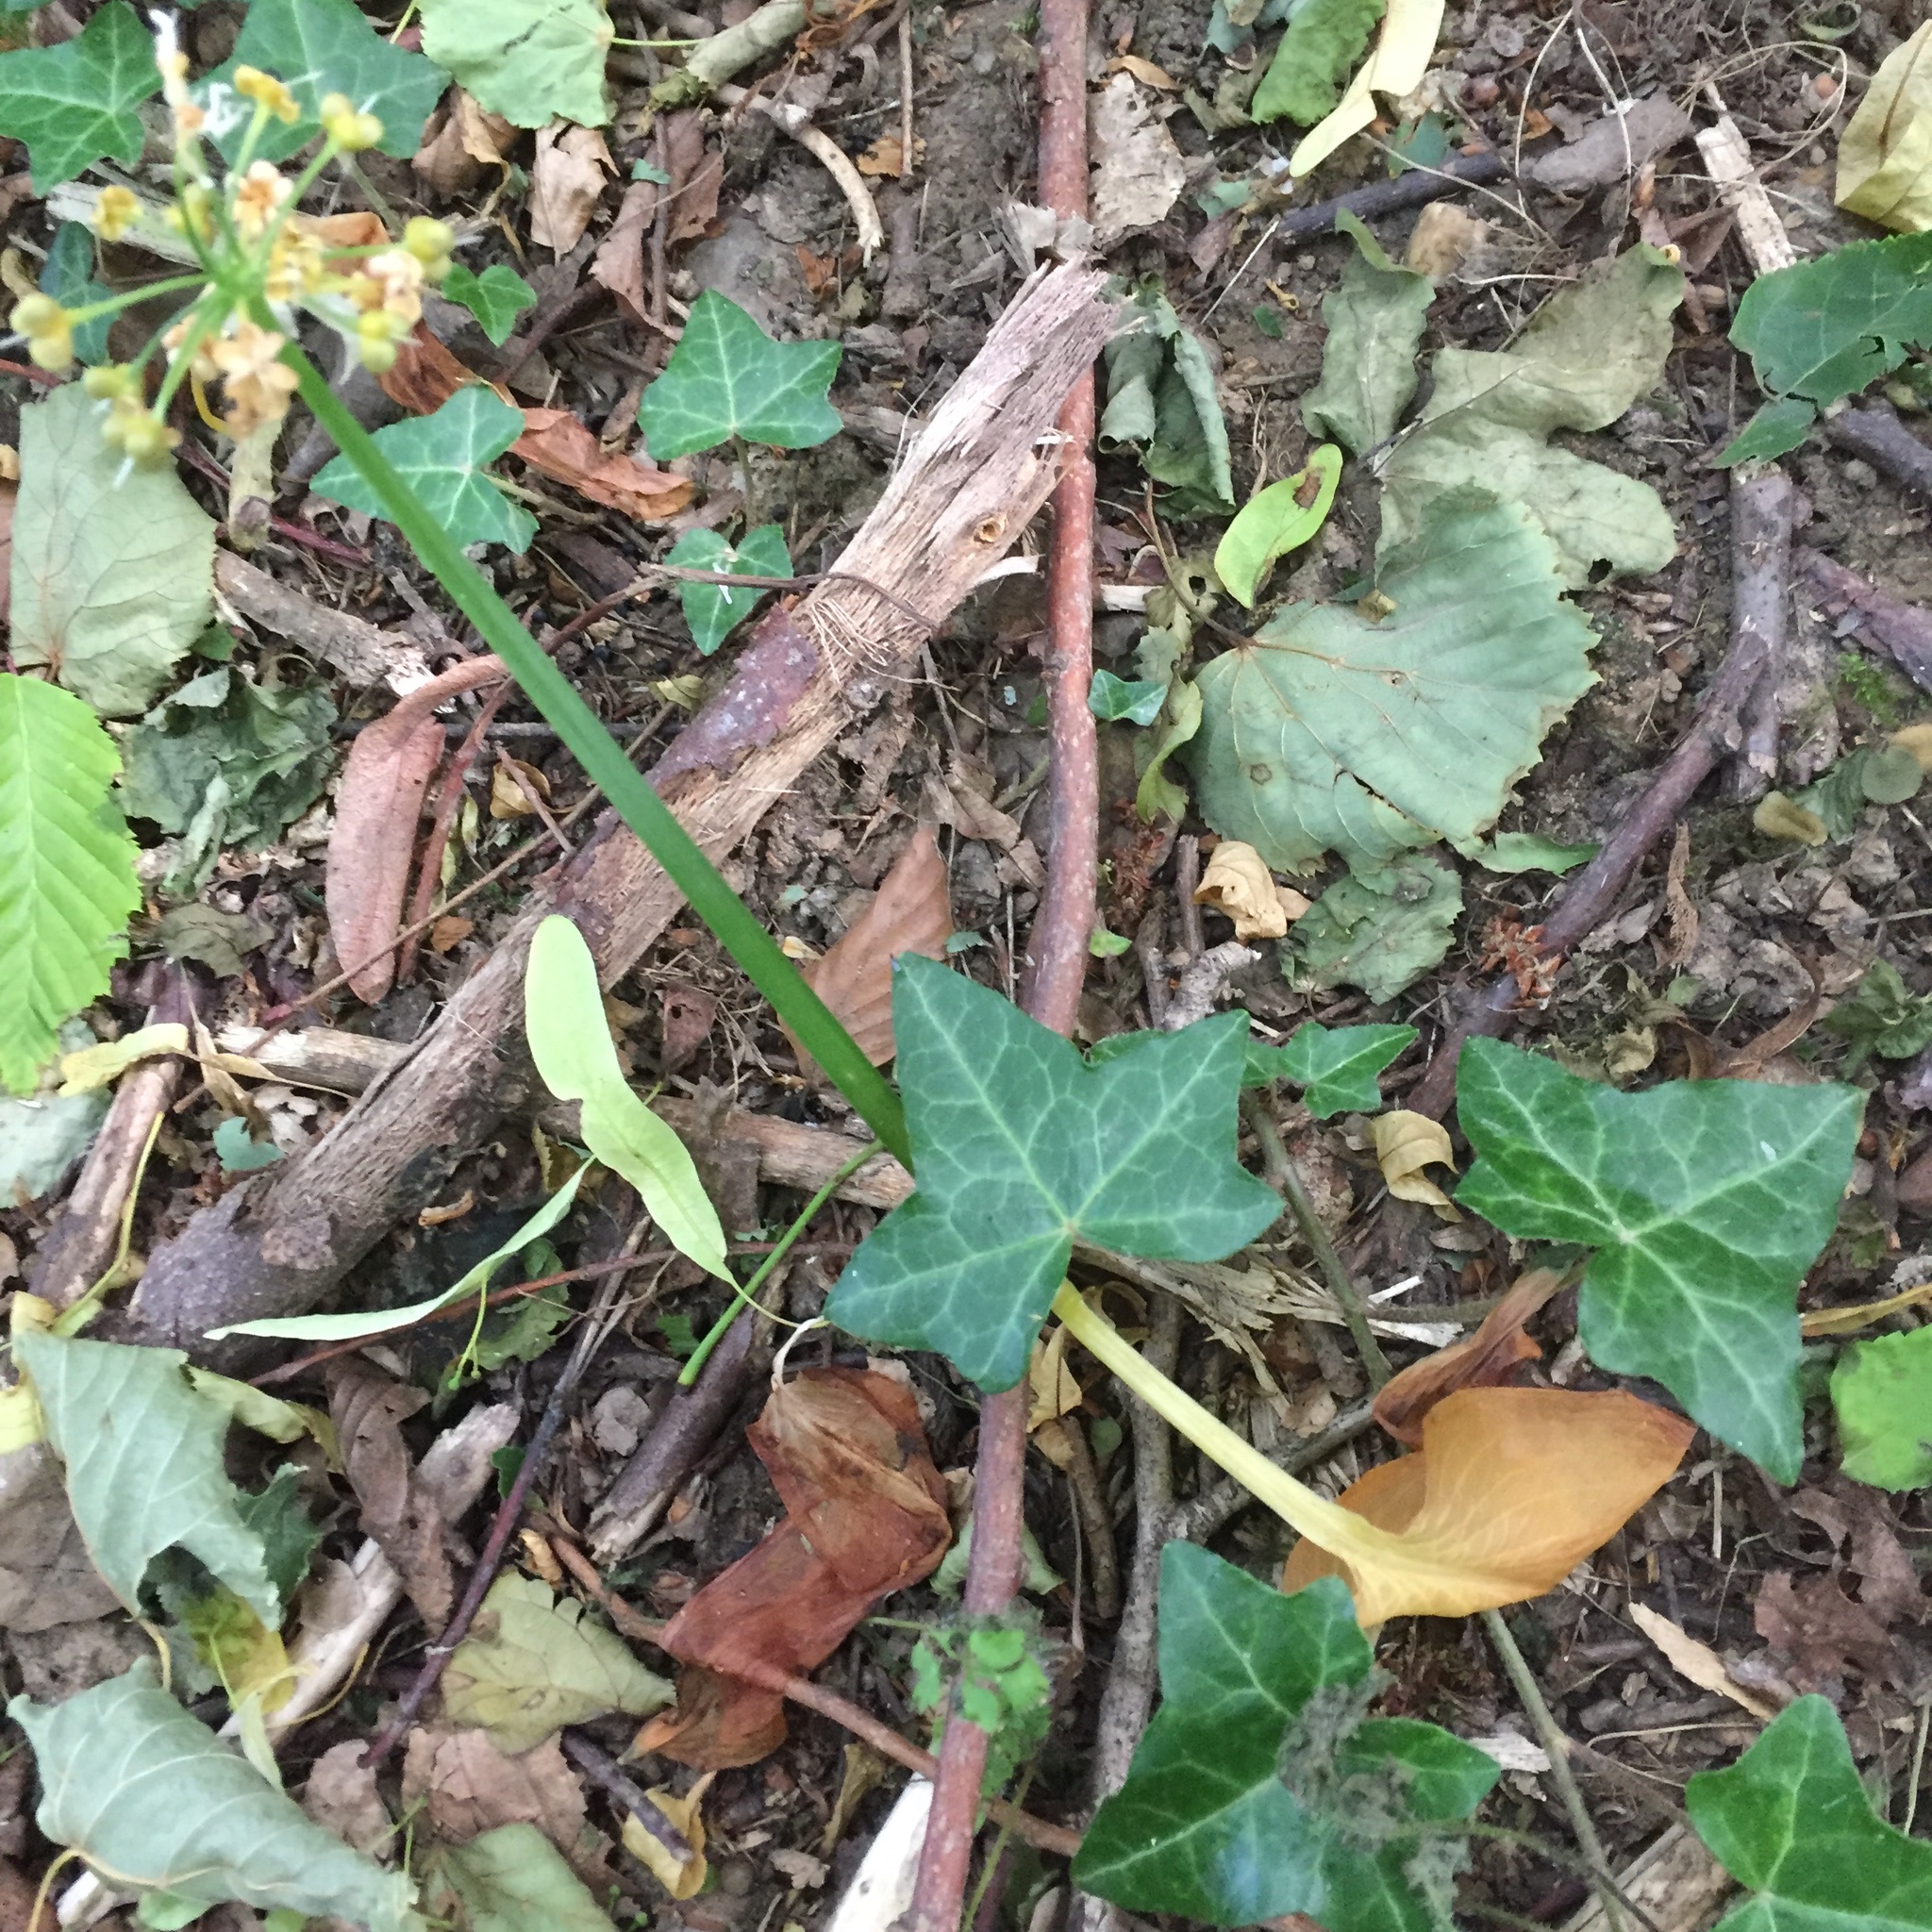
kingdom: Plantae
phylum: Tracheophyta
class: Liliopsida
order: Asparagales
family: Amaryllidaceae
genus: Allium
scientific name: Allium ursinum
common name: Ramsons
